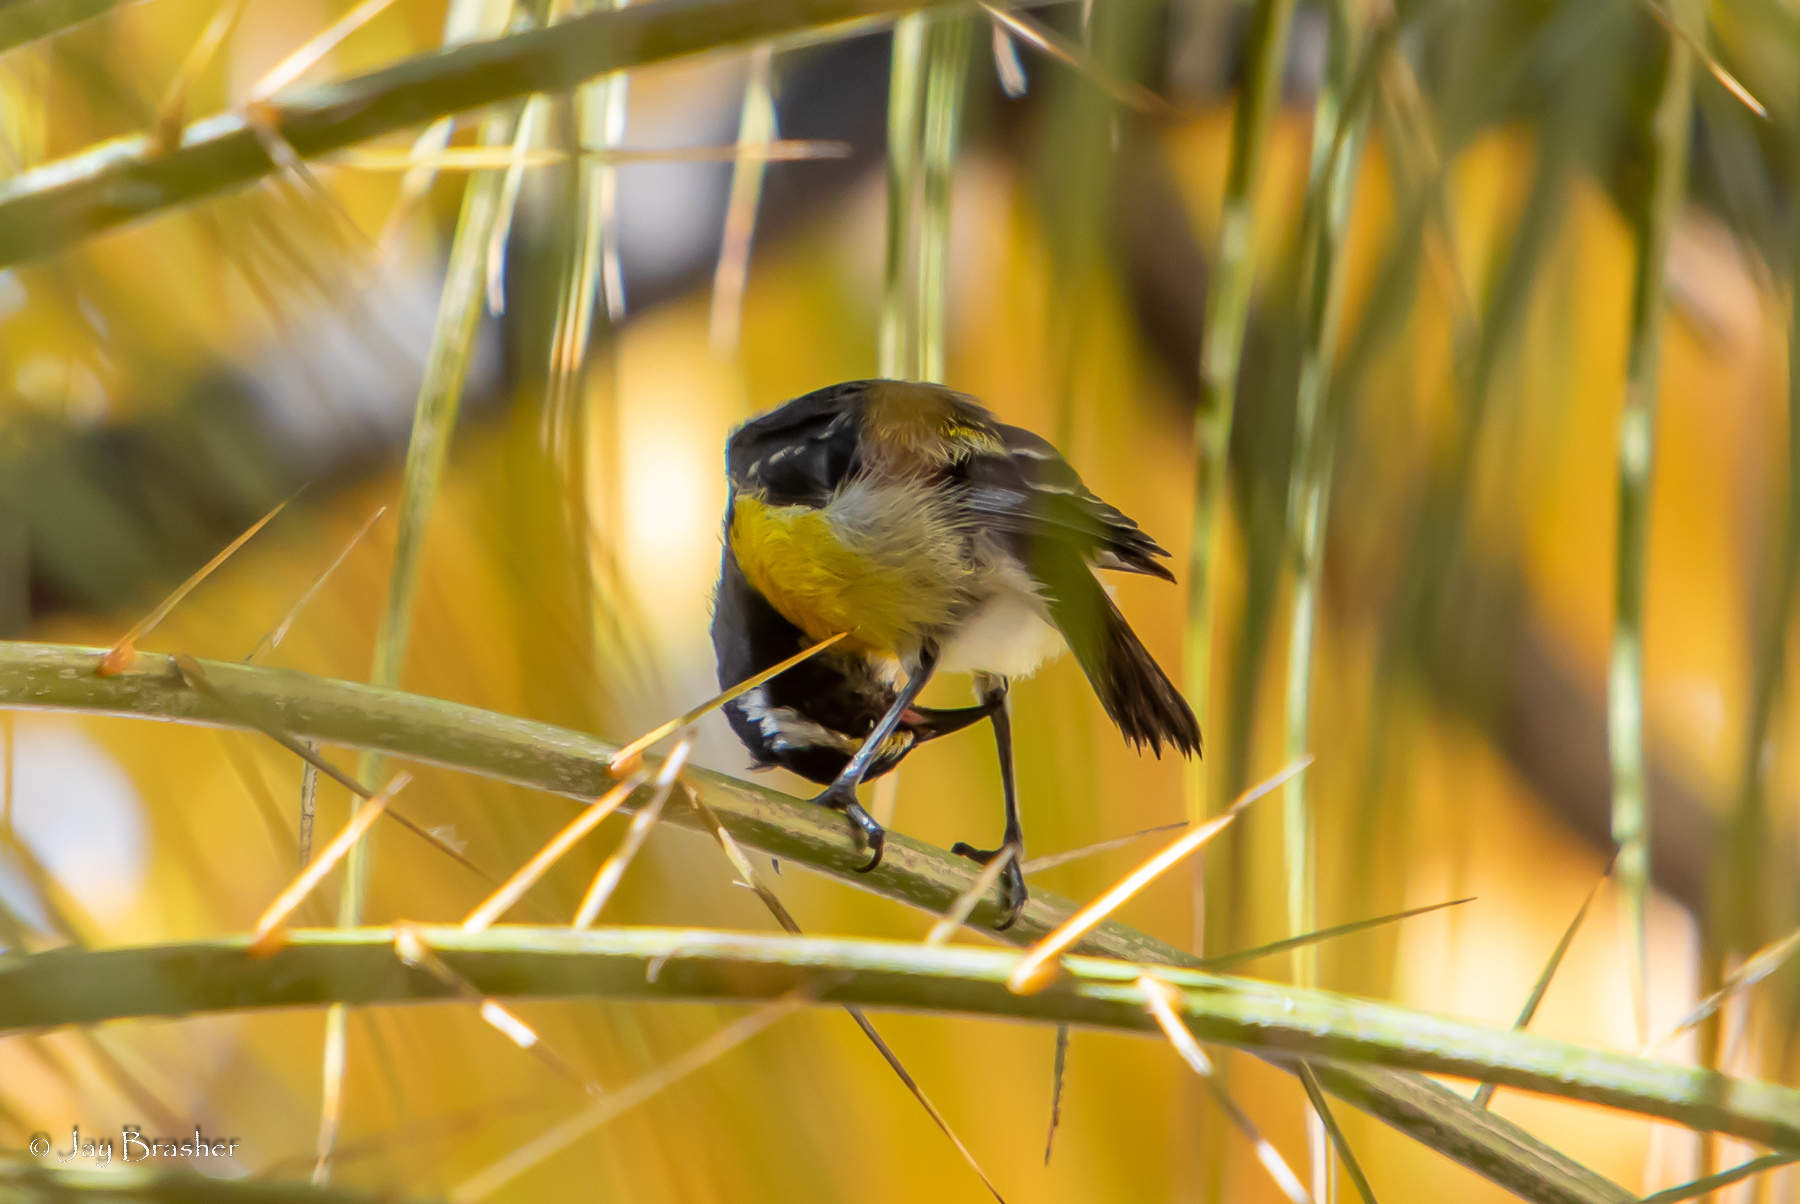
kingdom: Animalia
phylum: Chordata
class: Aves
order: Passeriformes
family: Thraupidae
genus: Coereba
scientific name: Coereba flaveola
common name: Bananaquit
